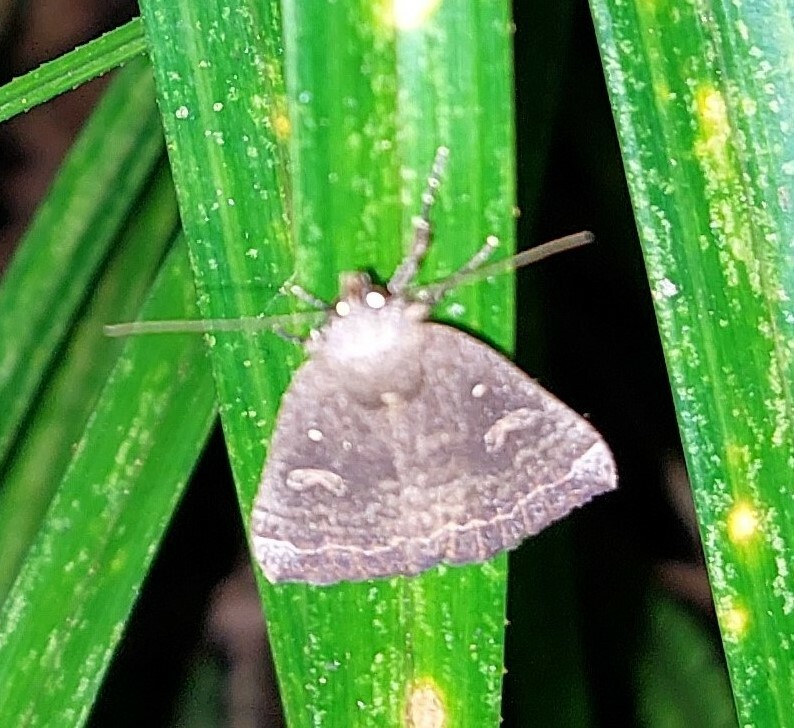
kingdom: Animalia
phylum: Arthropoda
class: Insecta
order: Lepidoptera
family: Erebidae
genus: Rhapsa
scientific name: Rhapsa scotosialis
